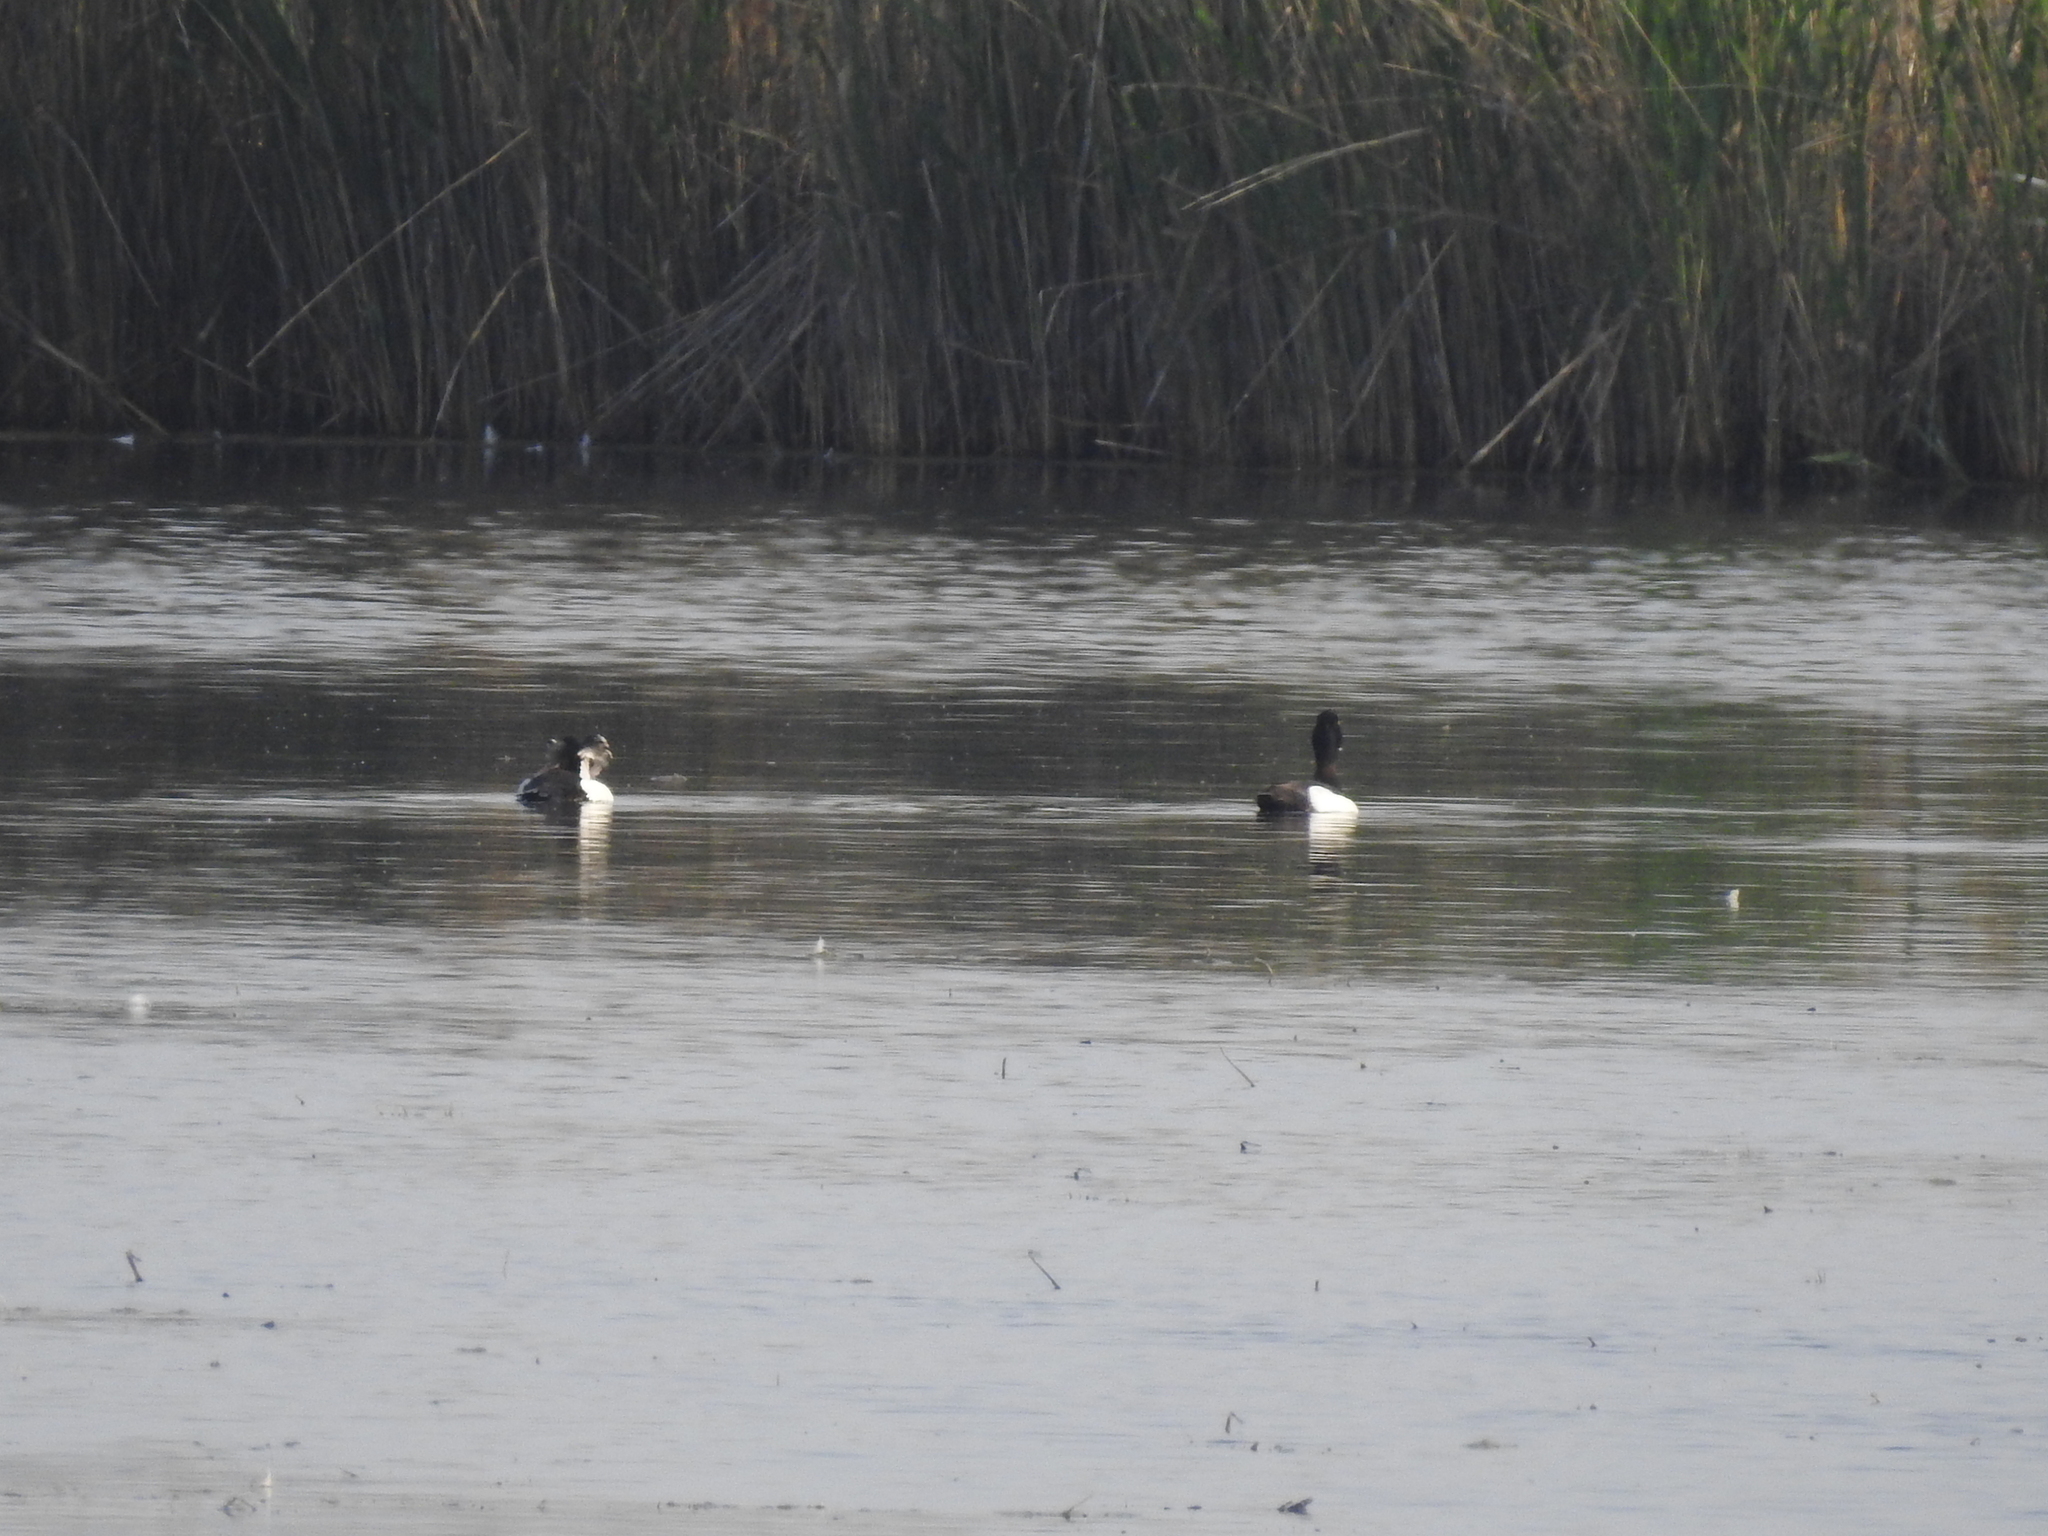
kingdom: Animalia
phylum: Chordata
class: Aves
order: Anseriformes
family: Anatidae
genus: Aythya
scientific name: Aythya fuligula
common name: Tufted duck
